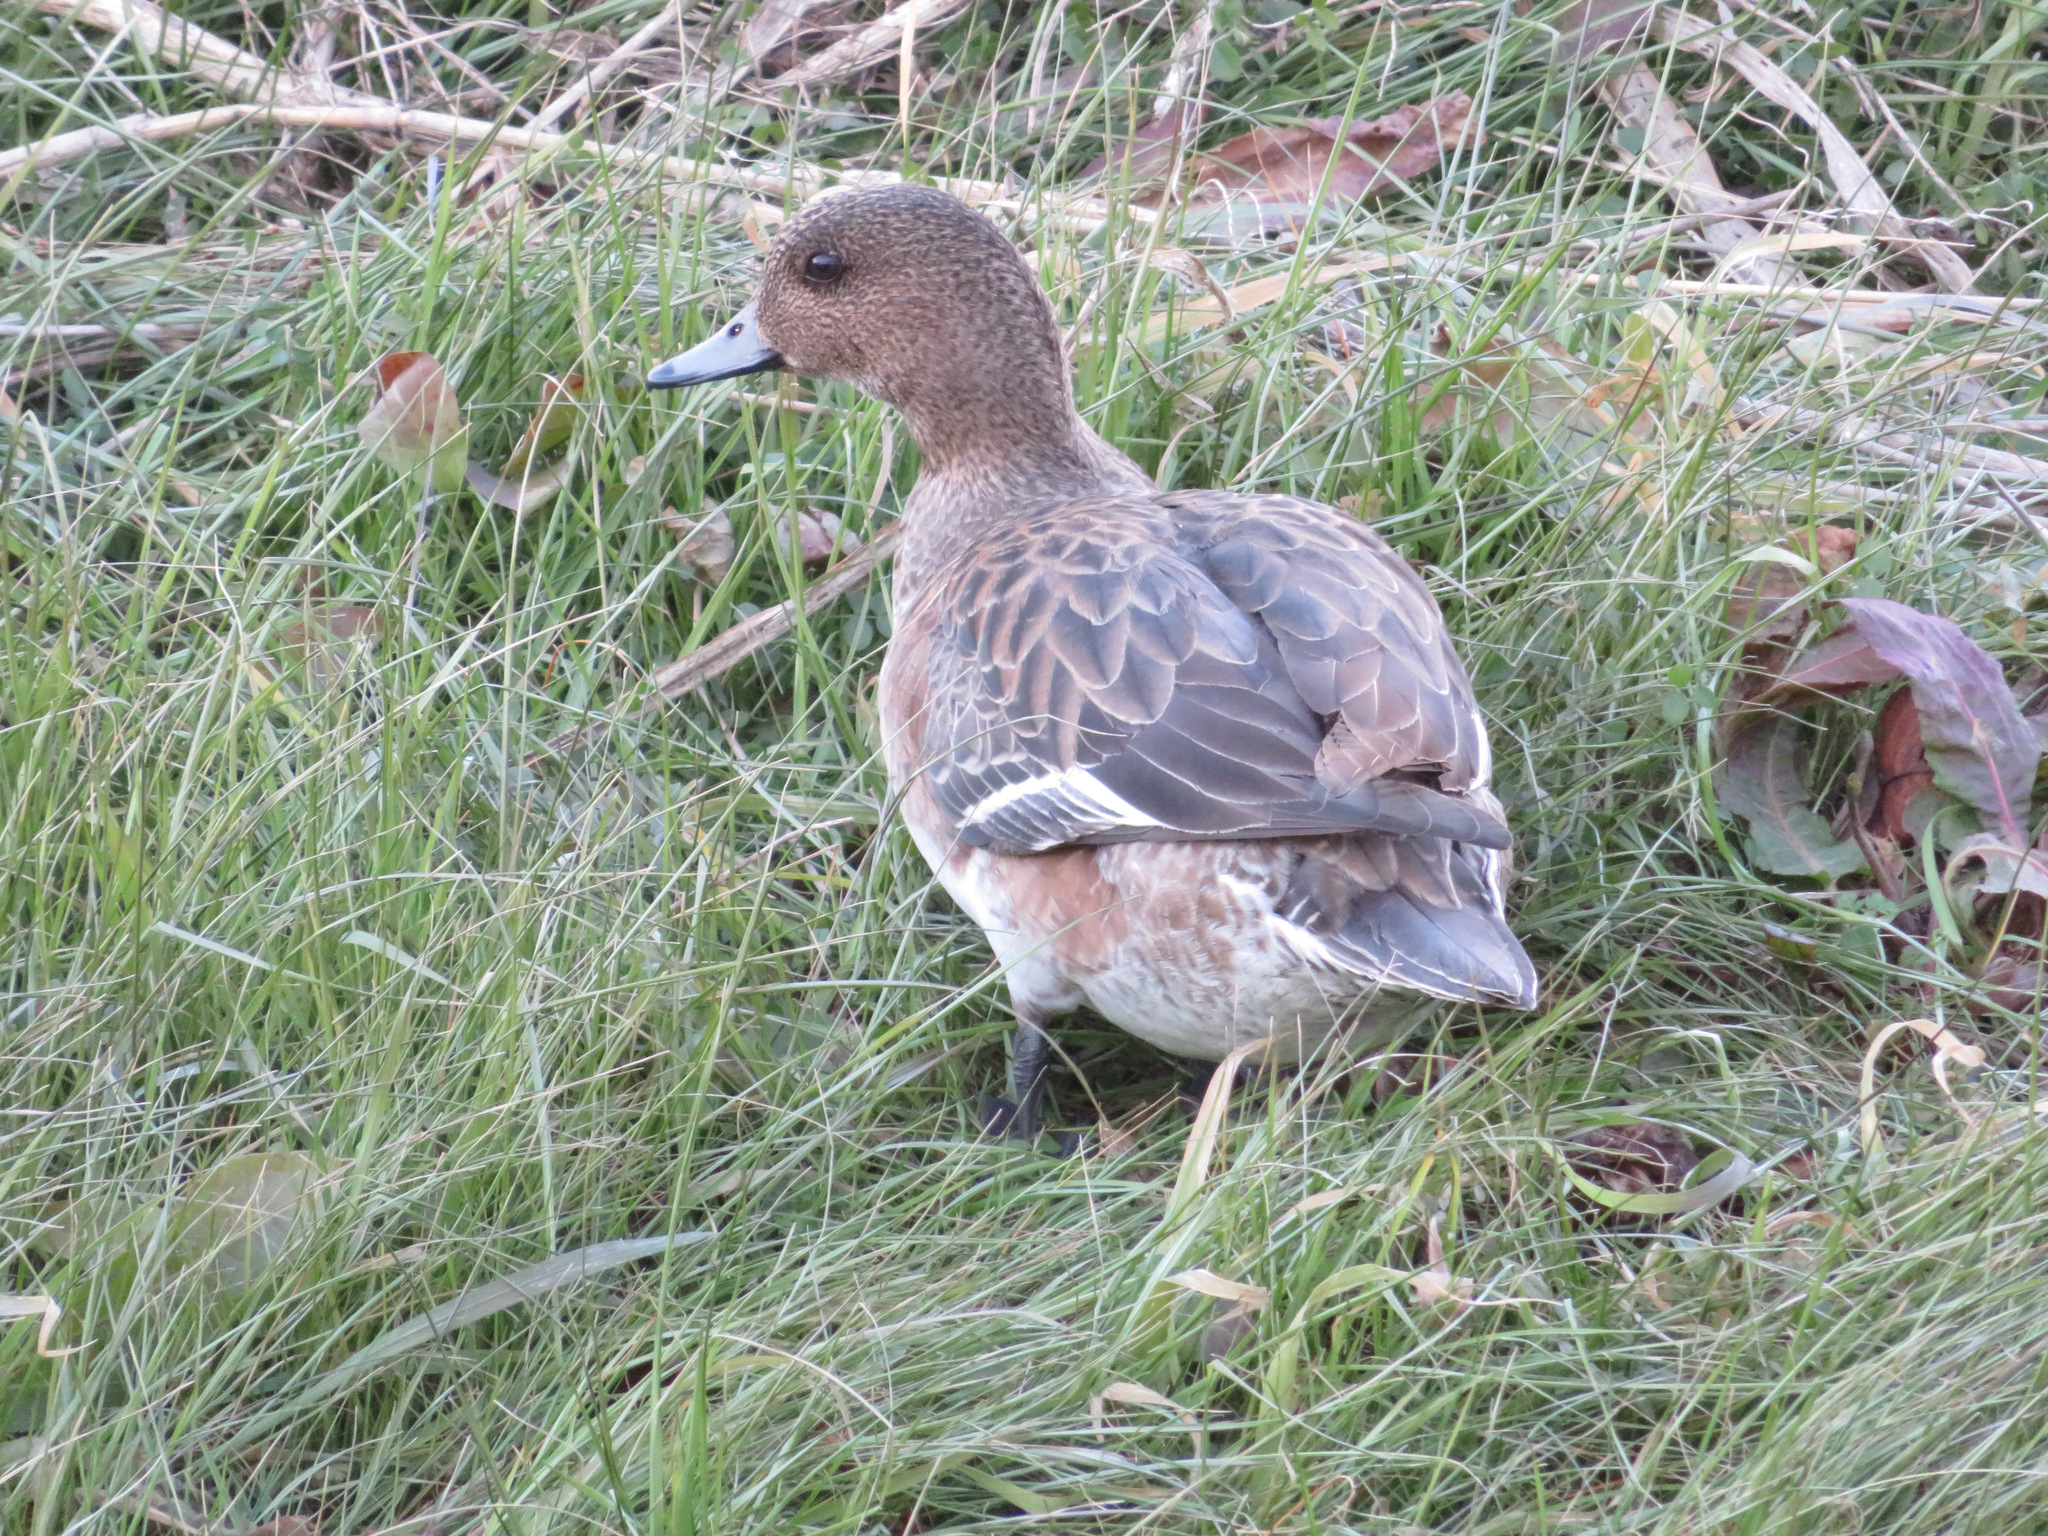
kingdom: Animalia
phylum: Chordata
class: Aves
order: Anseriformes
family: Anatidae
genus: Mareca
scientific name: Mareca penelope
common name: Eurasian wigeon
